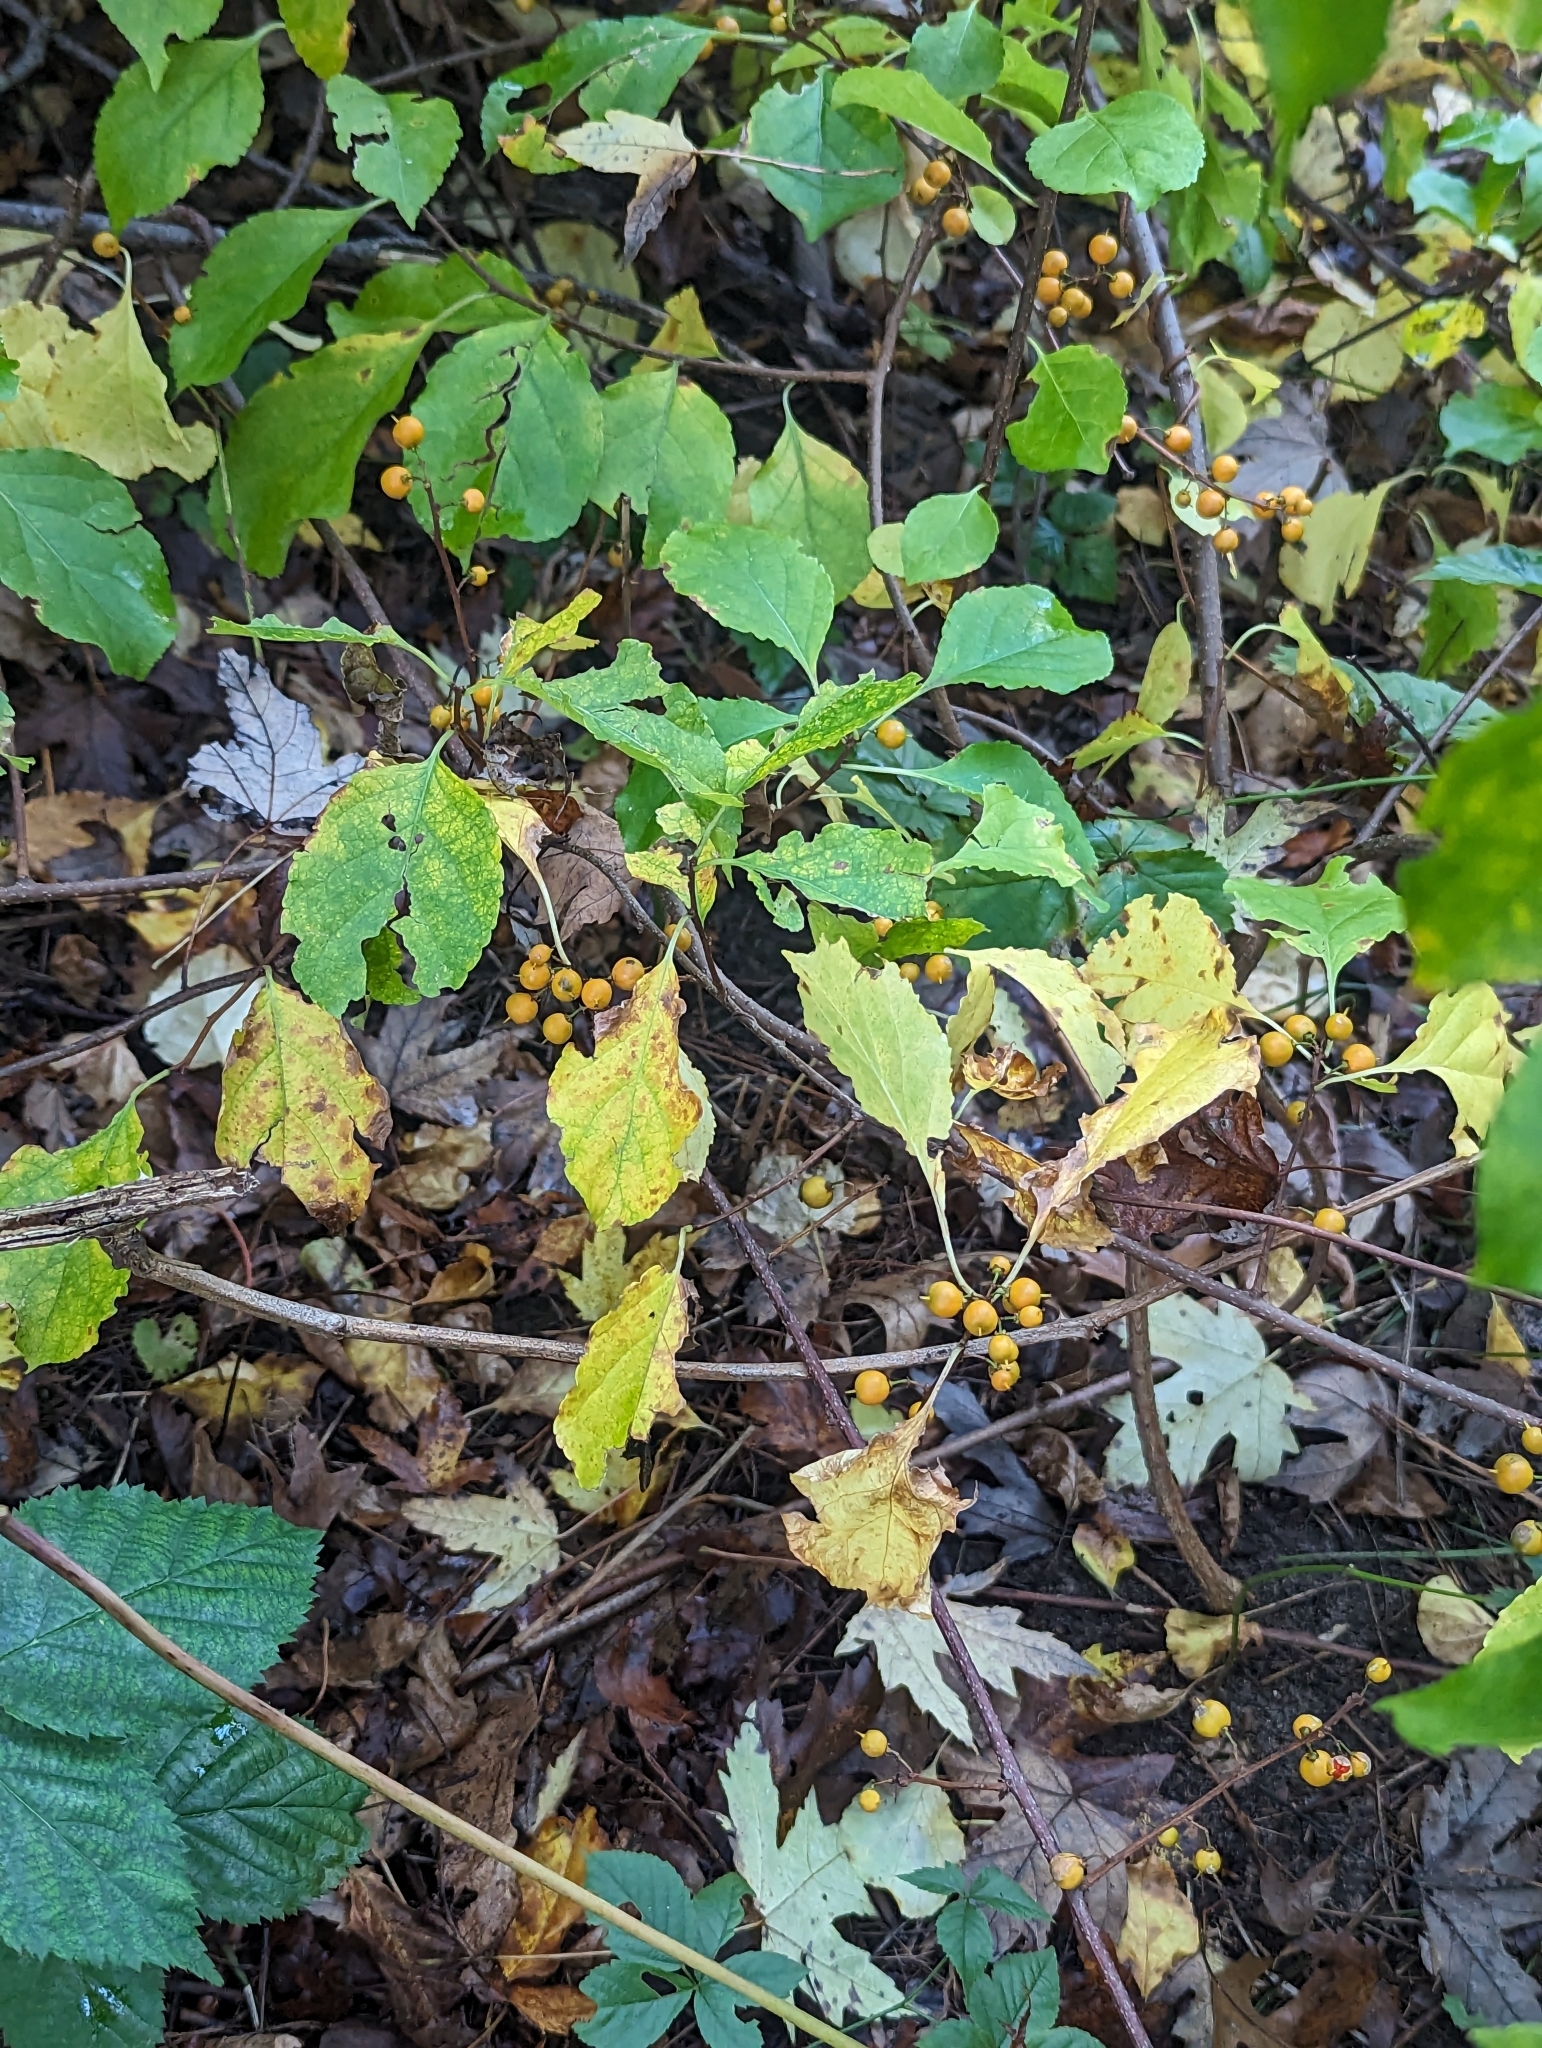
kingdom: Plantae
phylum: Tracheophyta
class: Magnoliopsida
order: Celastrales
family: Celastraceae
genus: Celastrus
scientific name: Celastrus orbiculatus
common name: Oriental bittersweet
